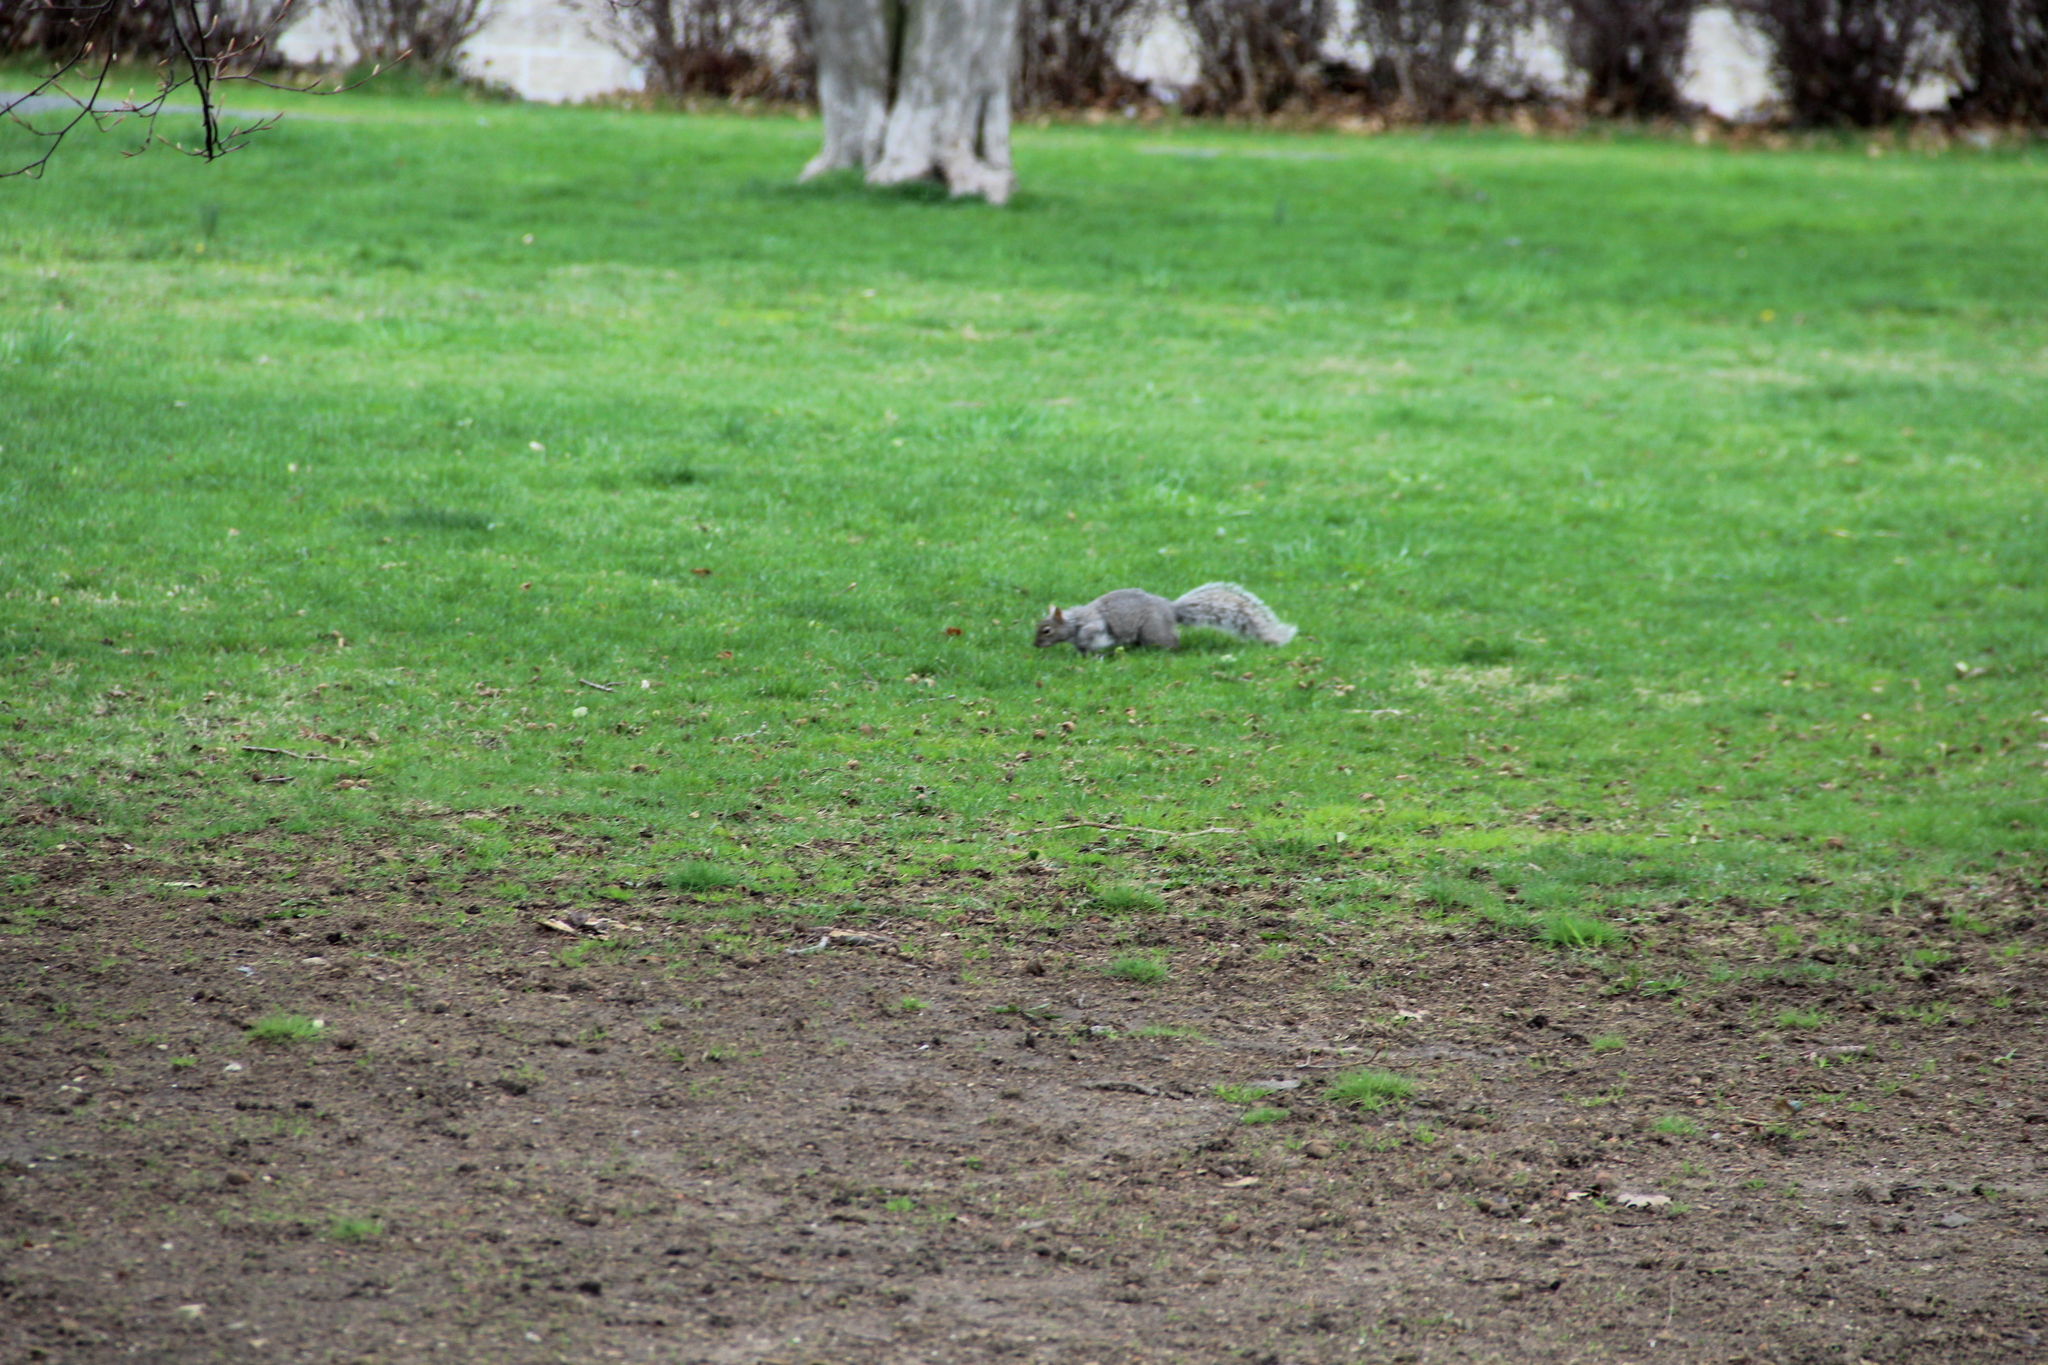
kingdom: Animalia
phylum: Chordata
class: Mammalia
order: Rodentia
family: Sciuridae
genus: Sciurus
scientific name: Sciurus carolinensis
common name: Eastern gray squirrel
